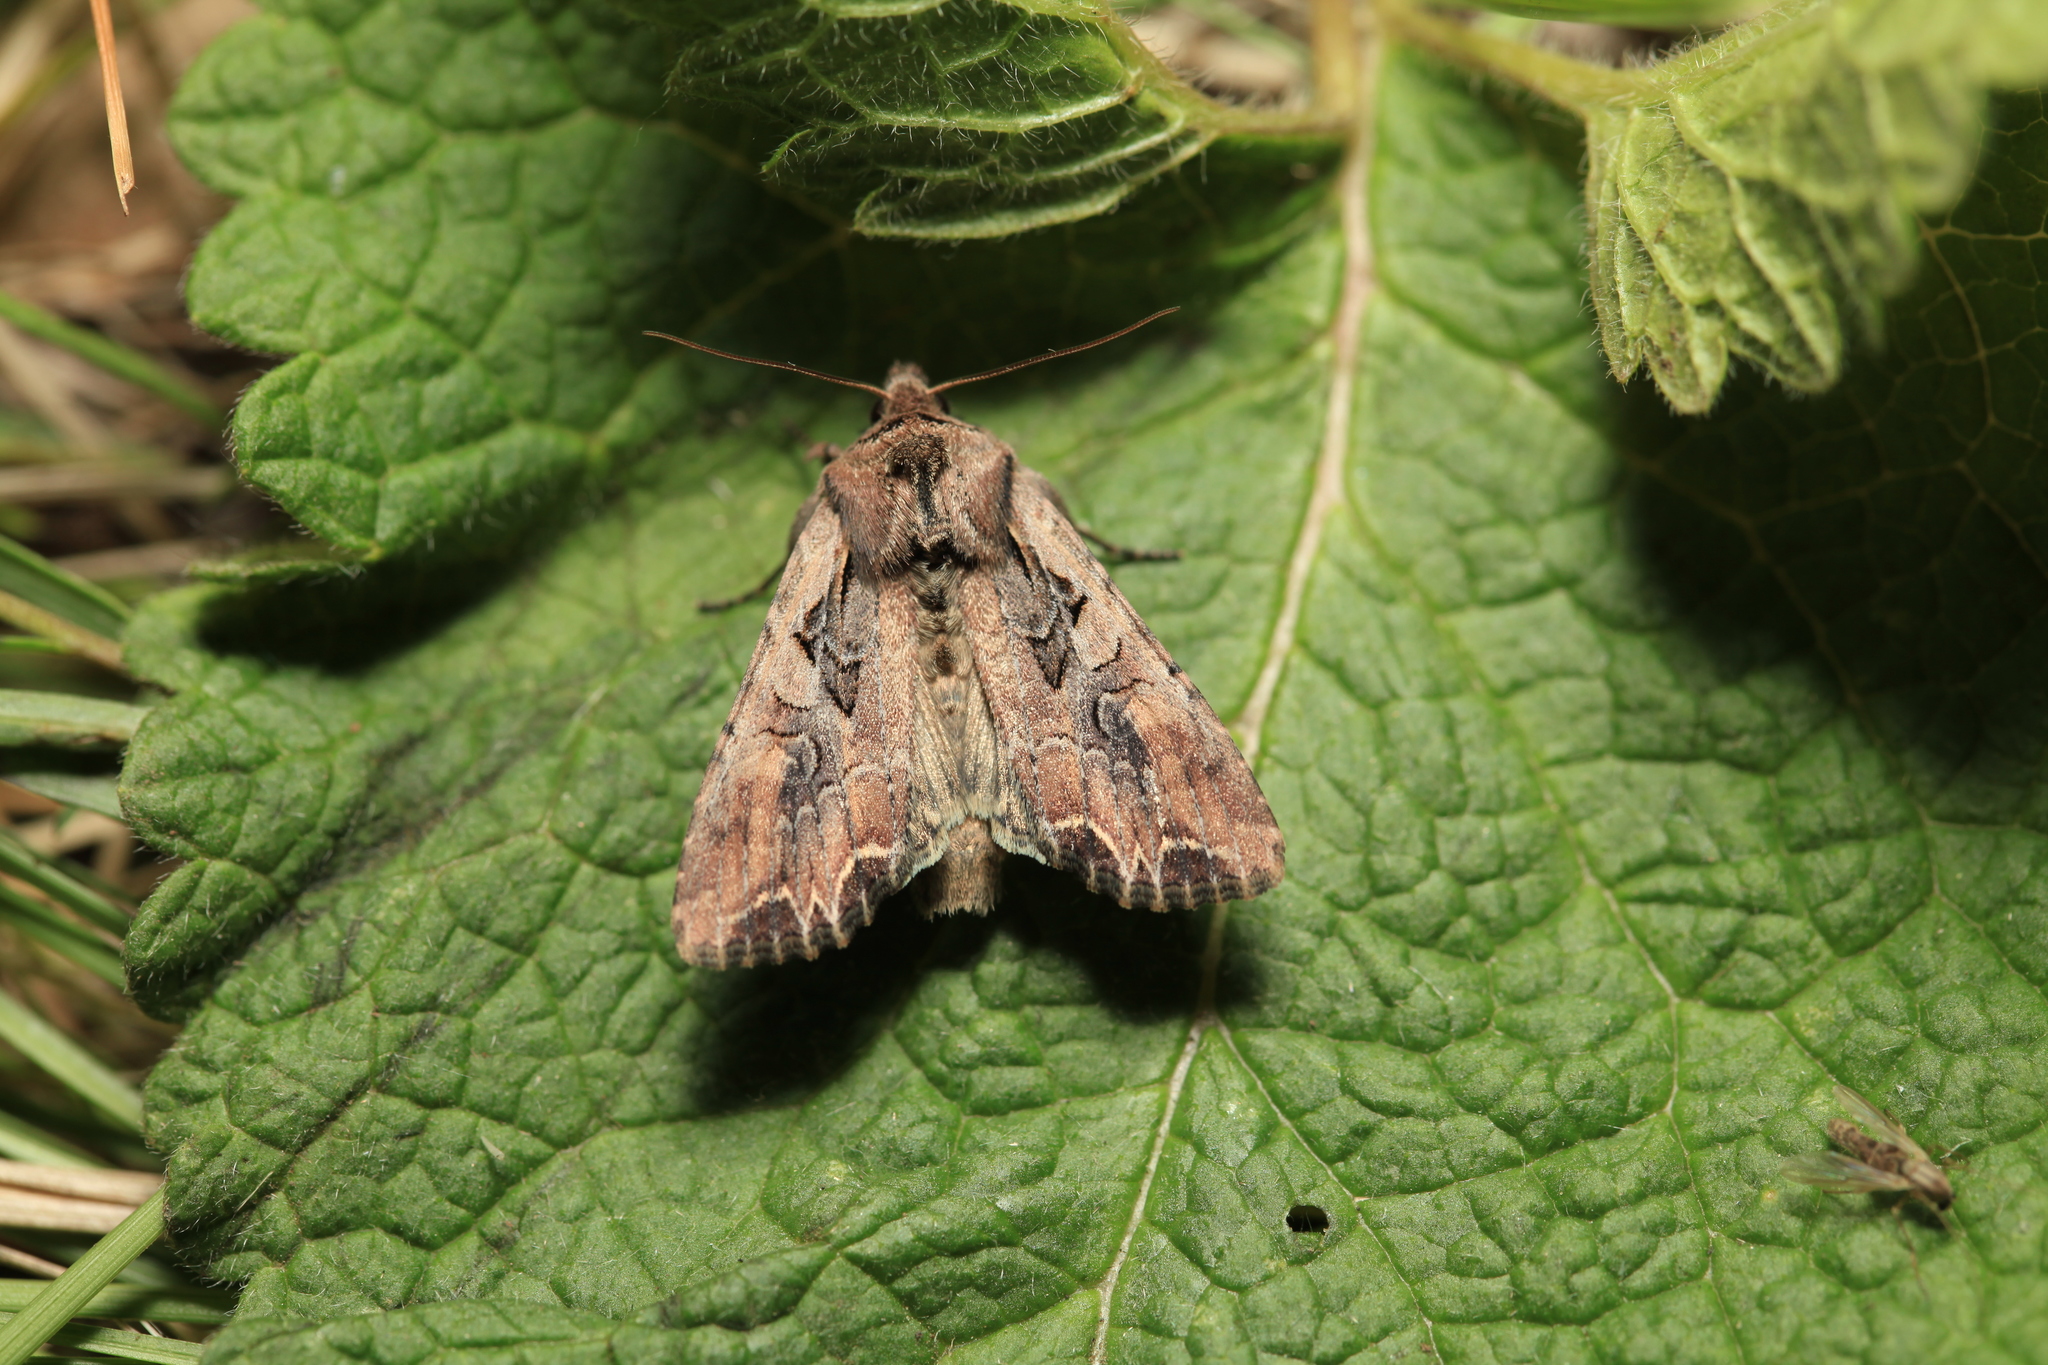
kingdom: Animalia
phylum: Arthropoda
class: Insecta
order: Lepidoptera
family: Noctuidae
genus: Lacanobia
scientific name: Lacanobia suasa
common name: Dog's tooth
